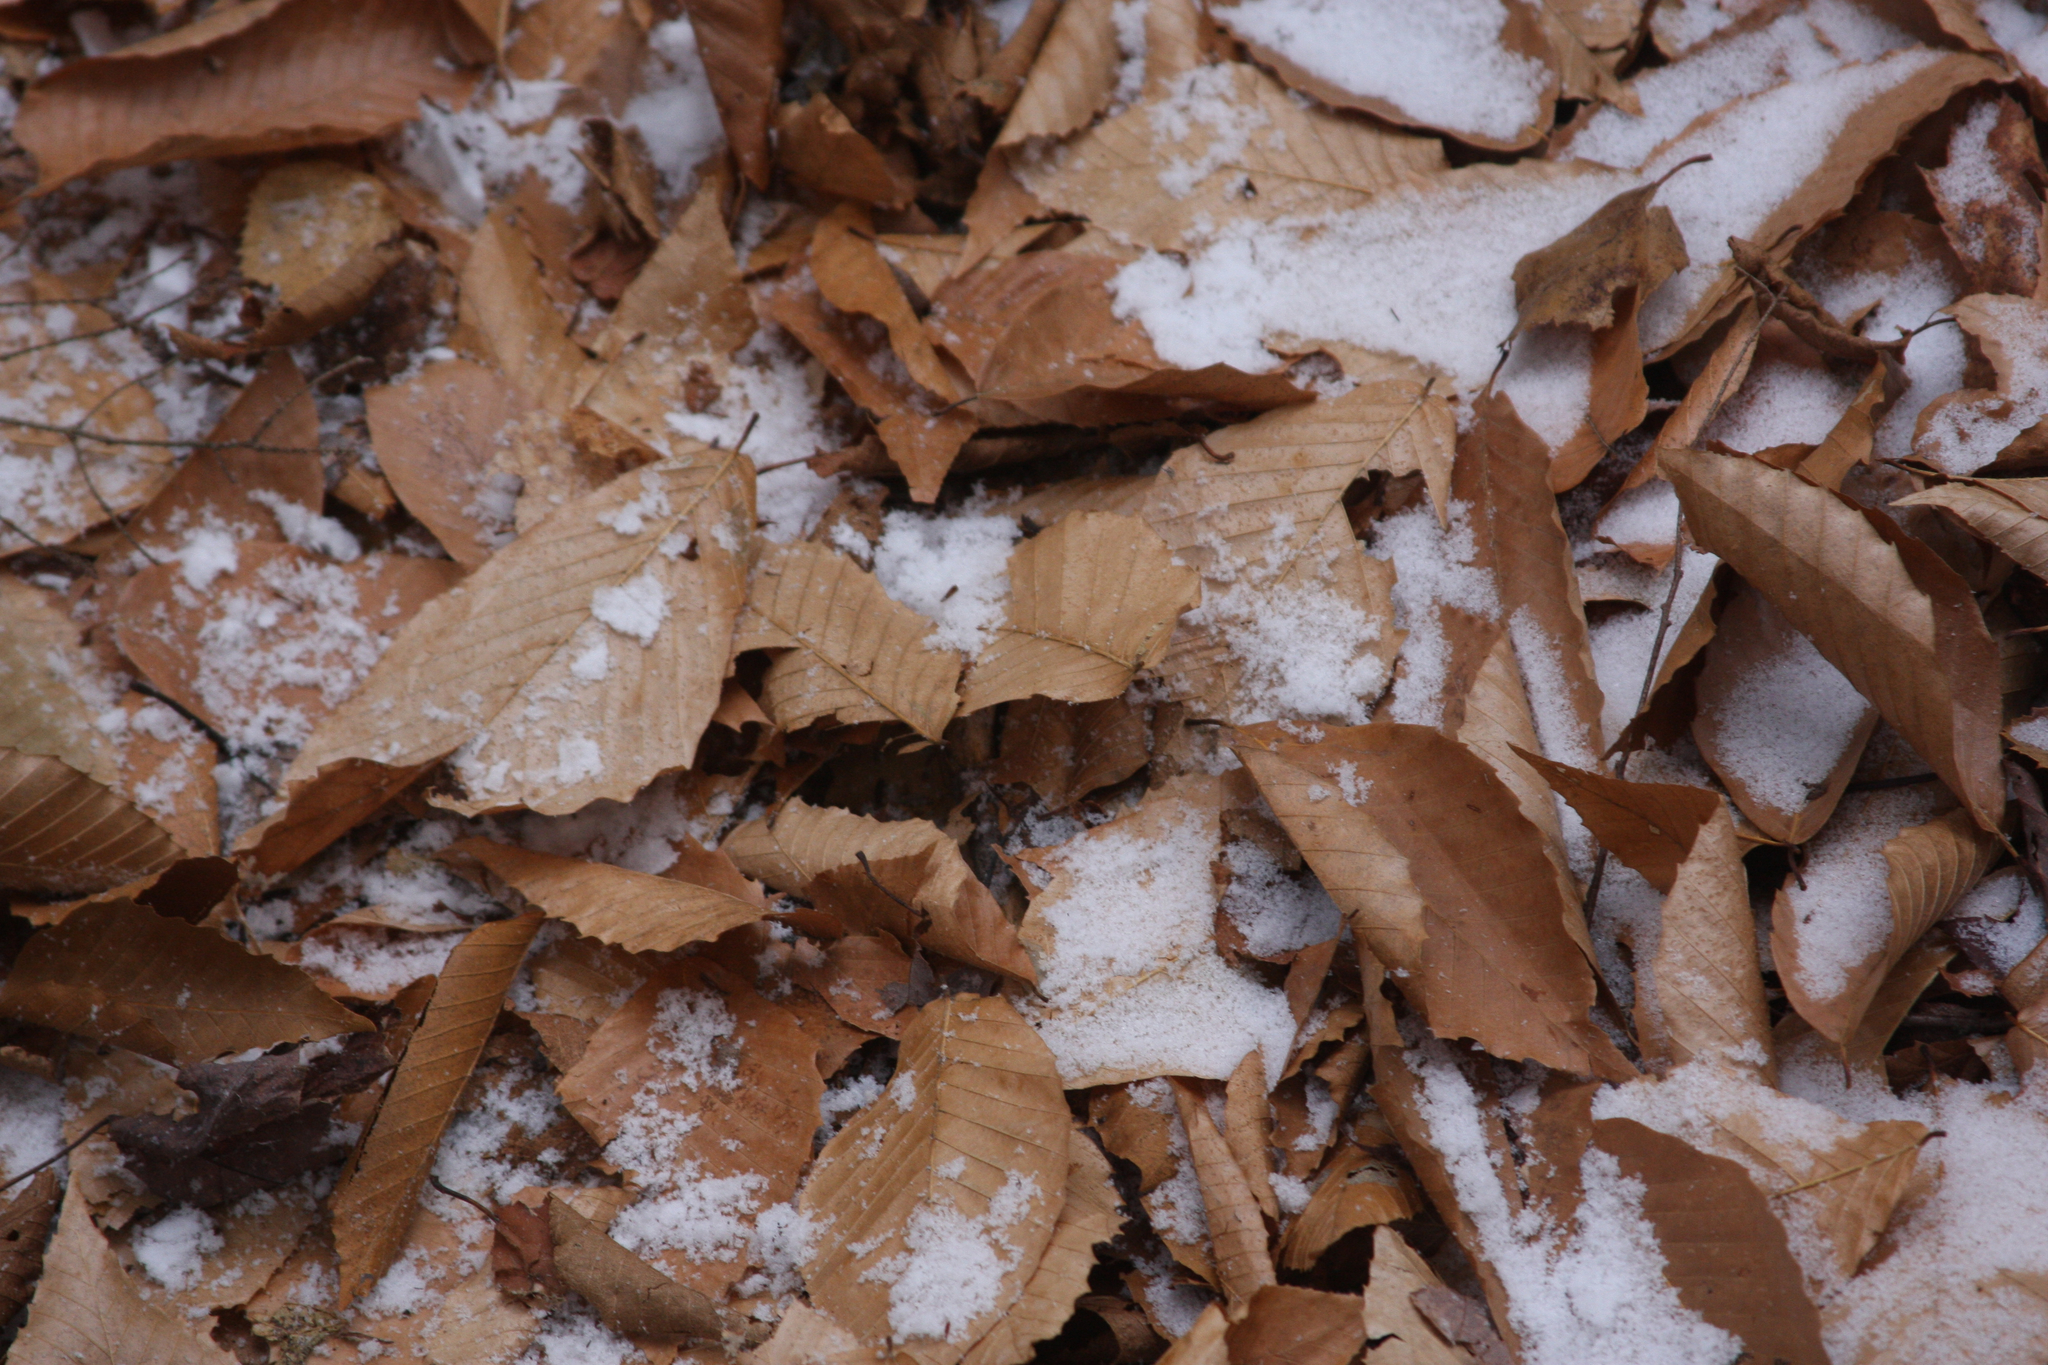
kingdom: Plantae
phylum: Tracheophyta
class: Magnoliopsida
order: Fagales
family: Fagaceae
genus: Fagus
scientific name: Fagus grandifolia
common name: American beech
